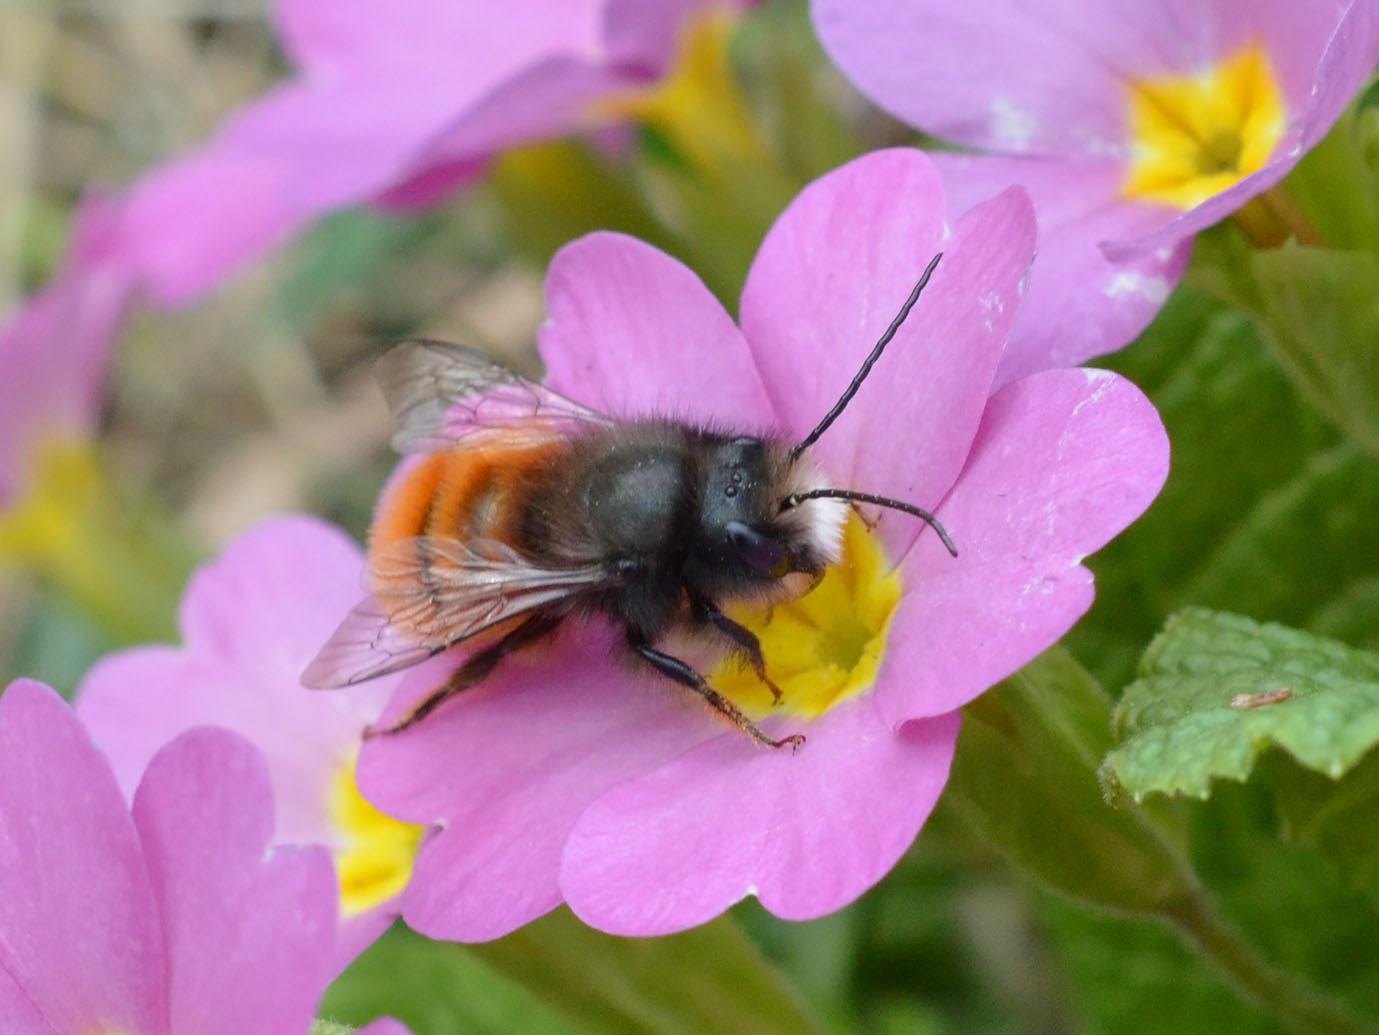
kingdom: Animalia
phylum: Arthropoda
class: Insecta
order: Hymenoptera
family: Megachilidae
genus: Osmia
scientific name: Osmia cornuta
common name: Mason bee
